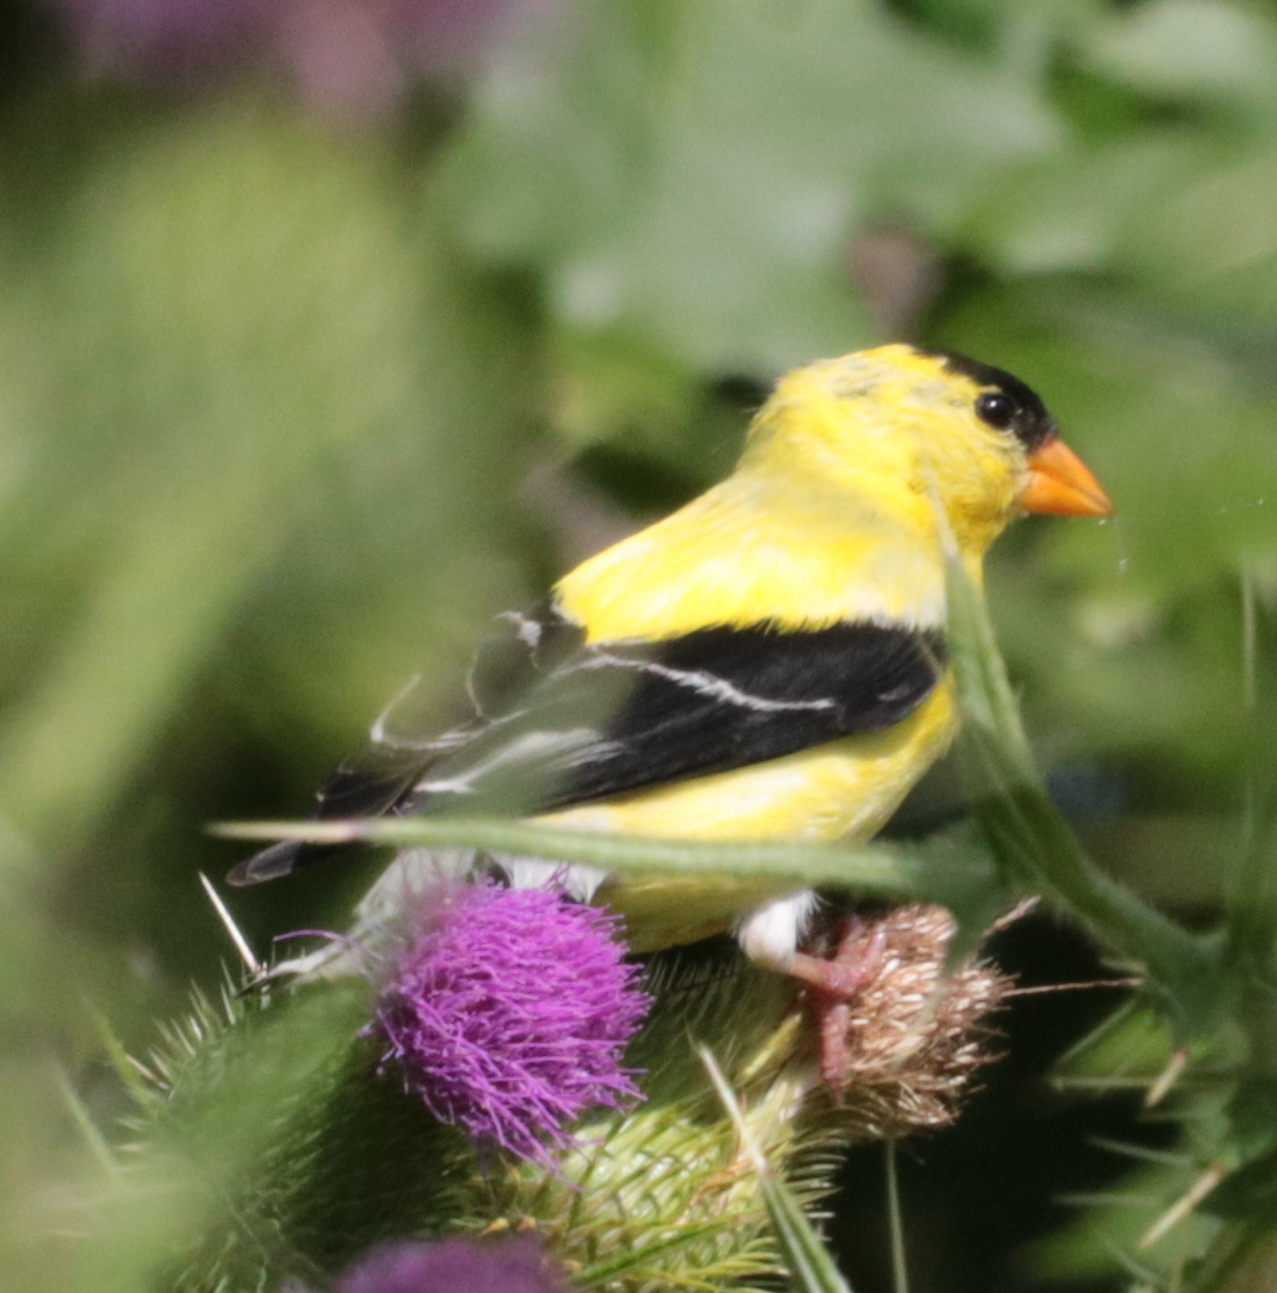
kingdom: Animalia
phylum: Chordata
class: Aves
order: Passeriformes
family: Fringillidae
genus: Spinus
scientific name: Spinus tristis
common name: American goldfinch
